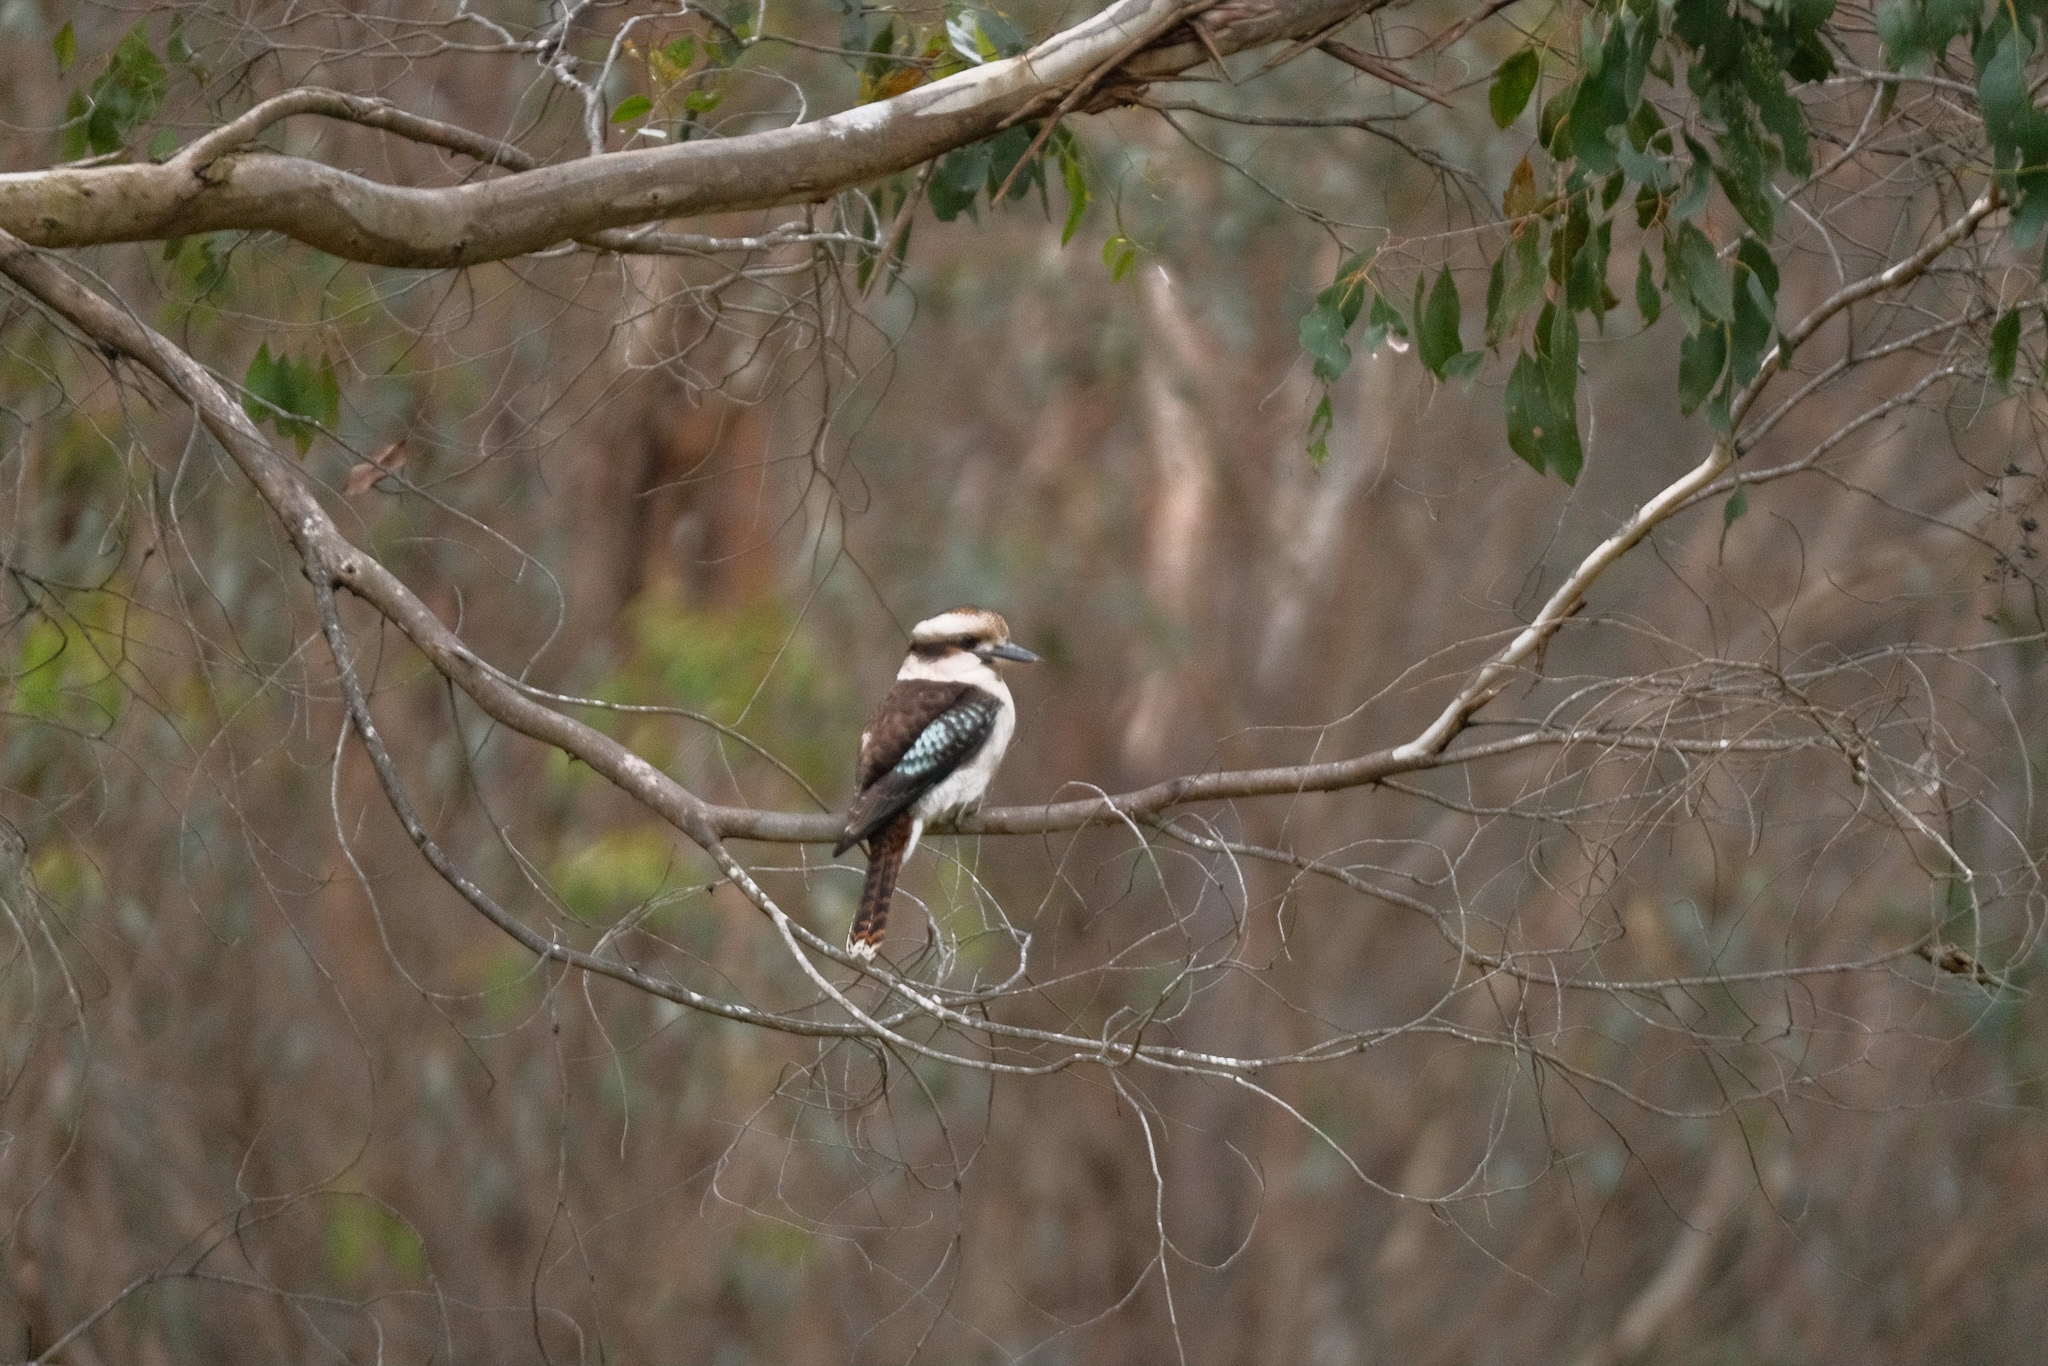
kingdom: Animalia
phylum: Chordata
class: Aves
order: Coraciiformes
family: Alcedinidae
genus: Dacelo
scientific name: Dacelo novaeguineae
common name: Laughing kookaburra
